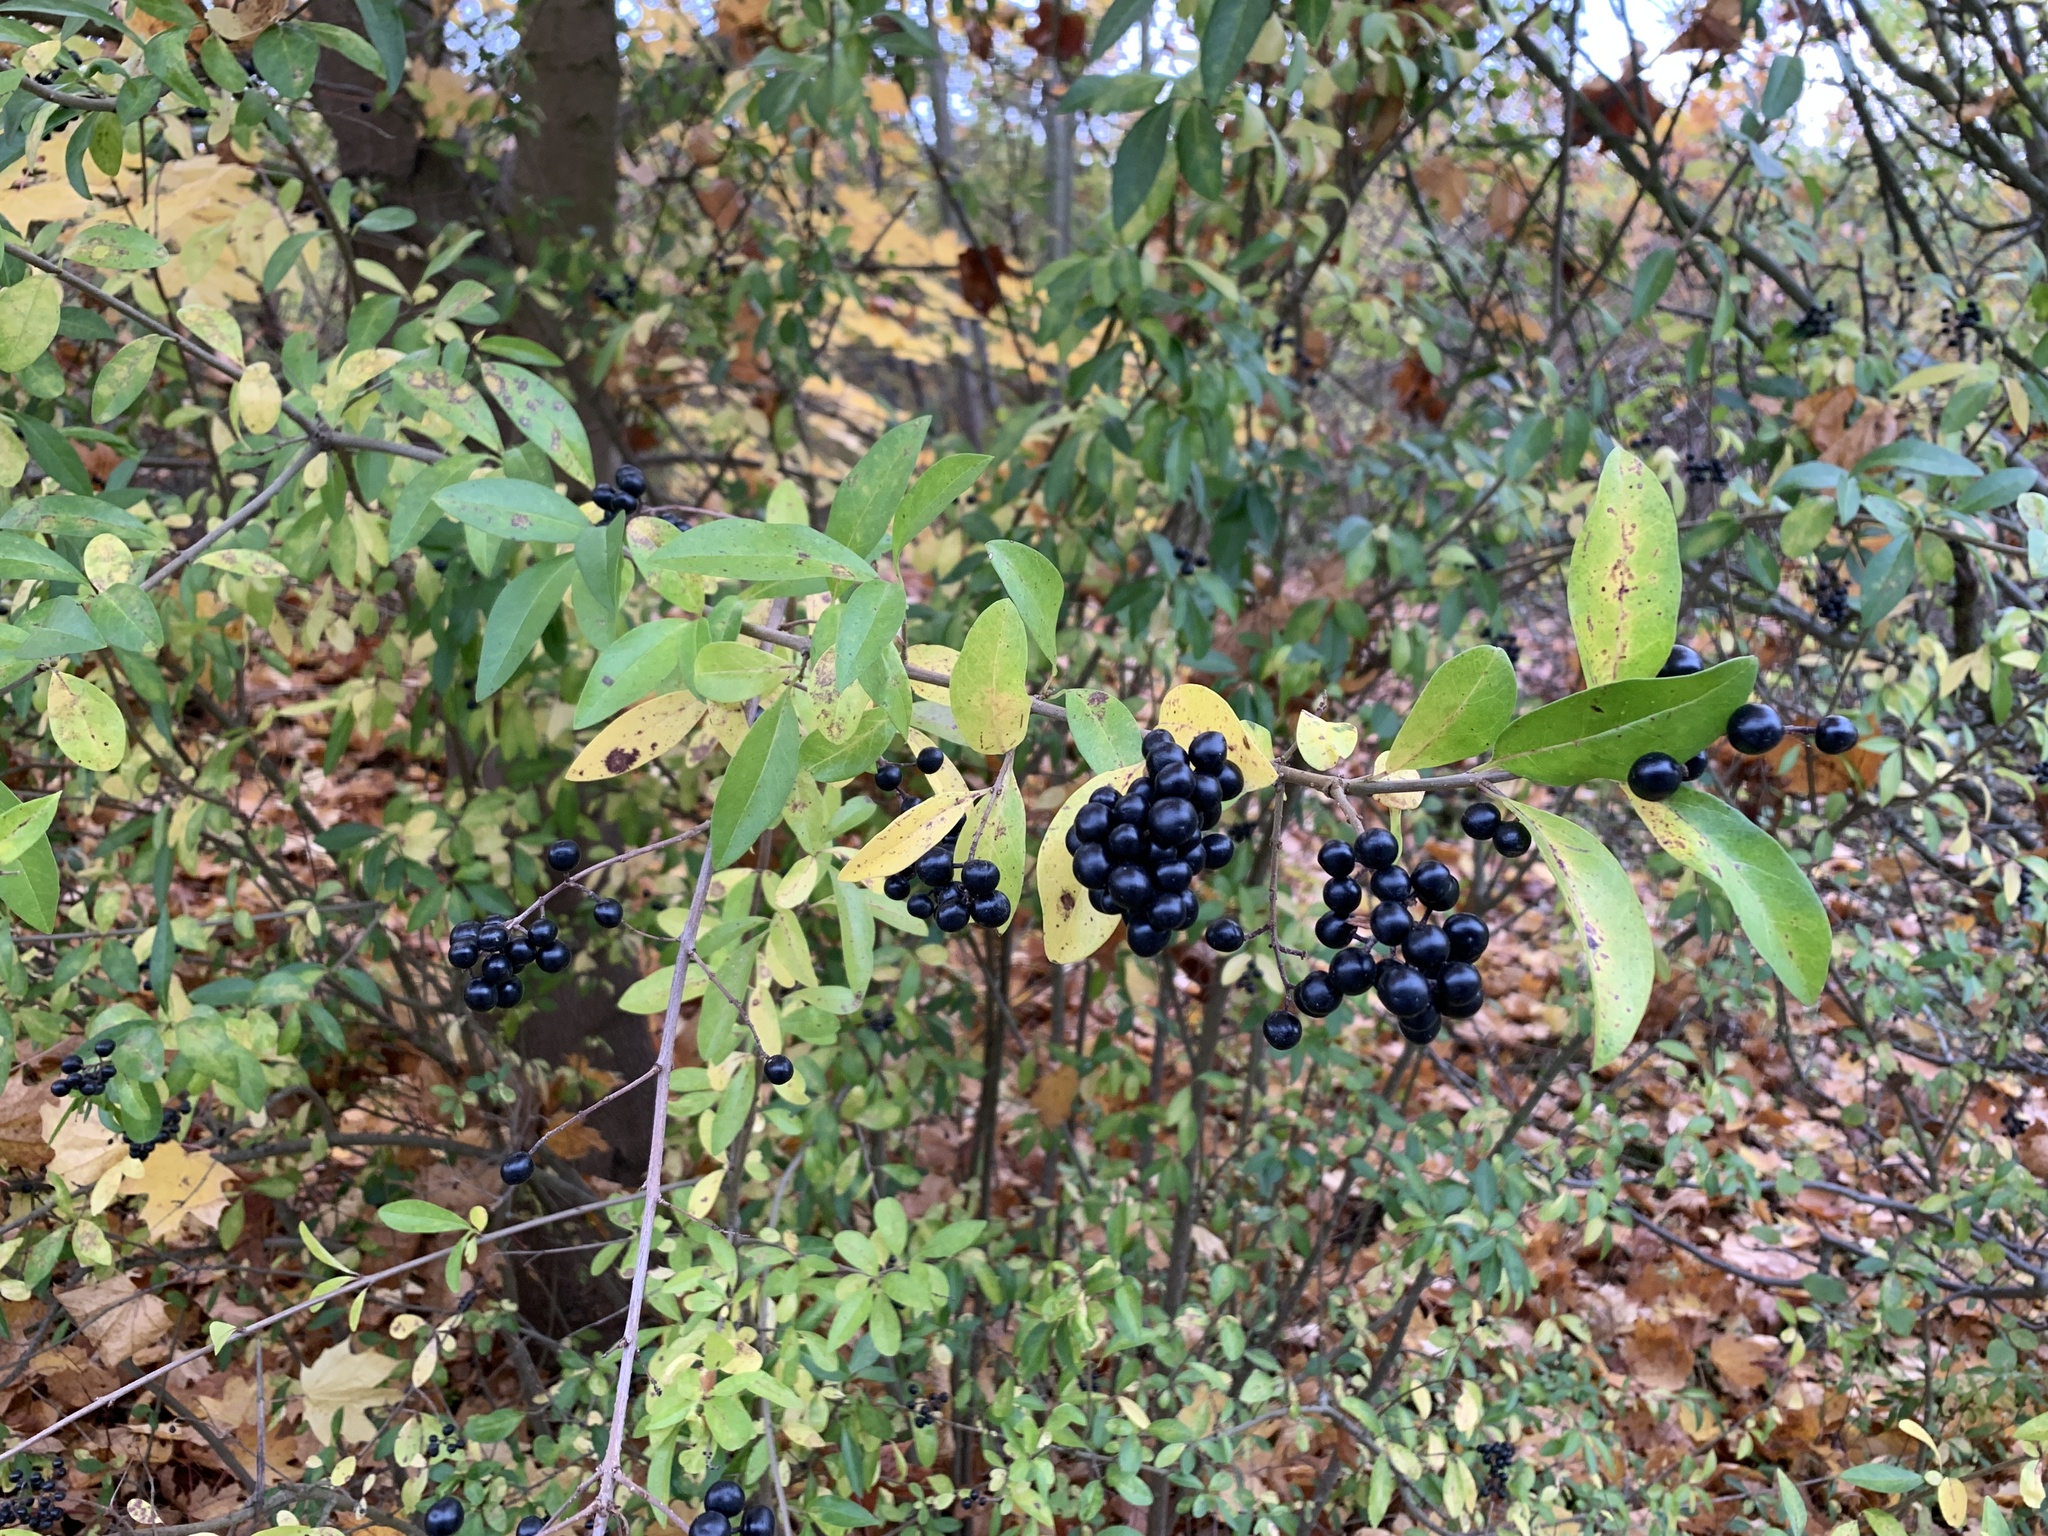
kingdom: Plantae
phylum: Tracheophyta
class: Magnoliopsida
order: Lamiales
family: Oleaceae
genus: Ligustrum
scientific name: Ligustrum vulgare
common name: Wild privet
